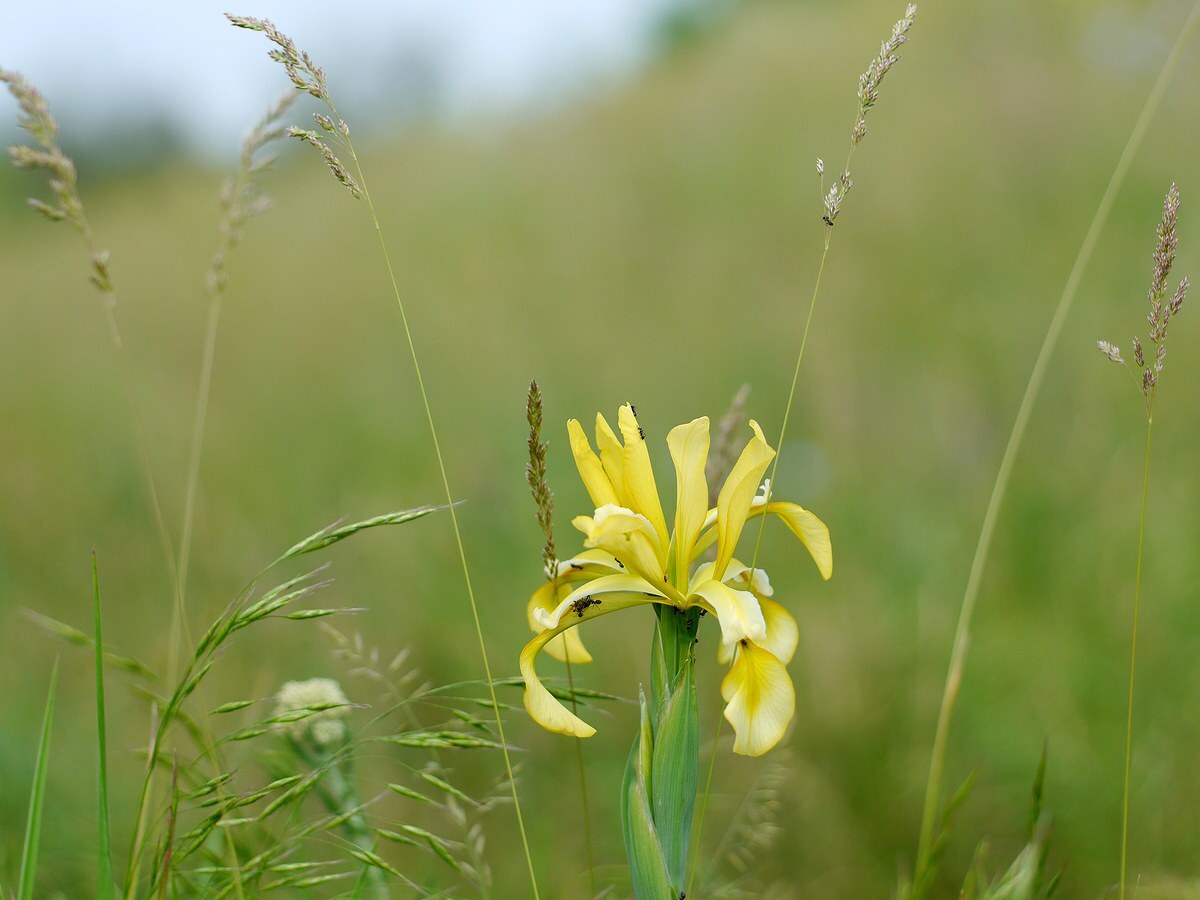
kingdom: Plantae
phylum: Tracheophyta
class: Liliopsida
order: Asparagales
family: Iridaceae
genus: Iris
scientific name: Iris halophila
